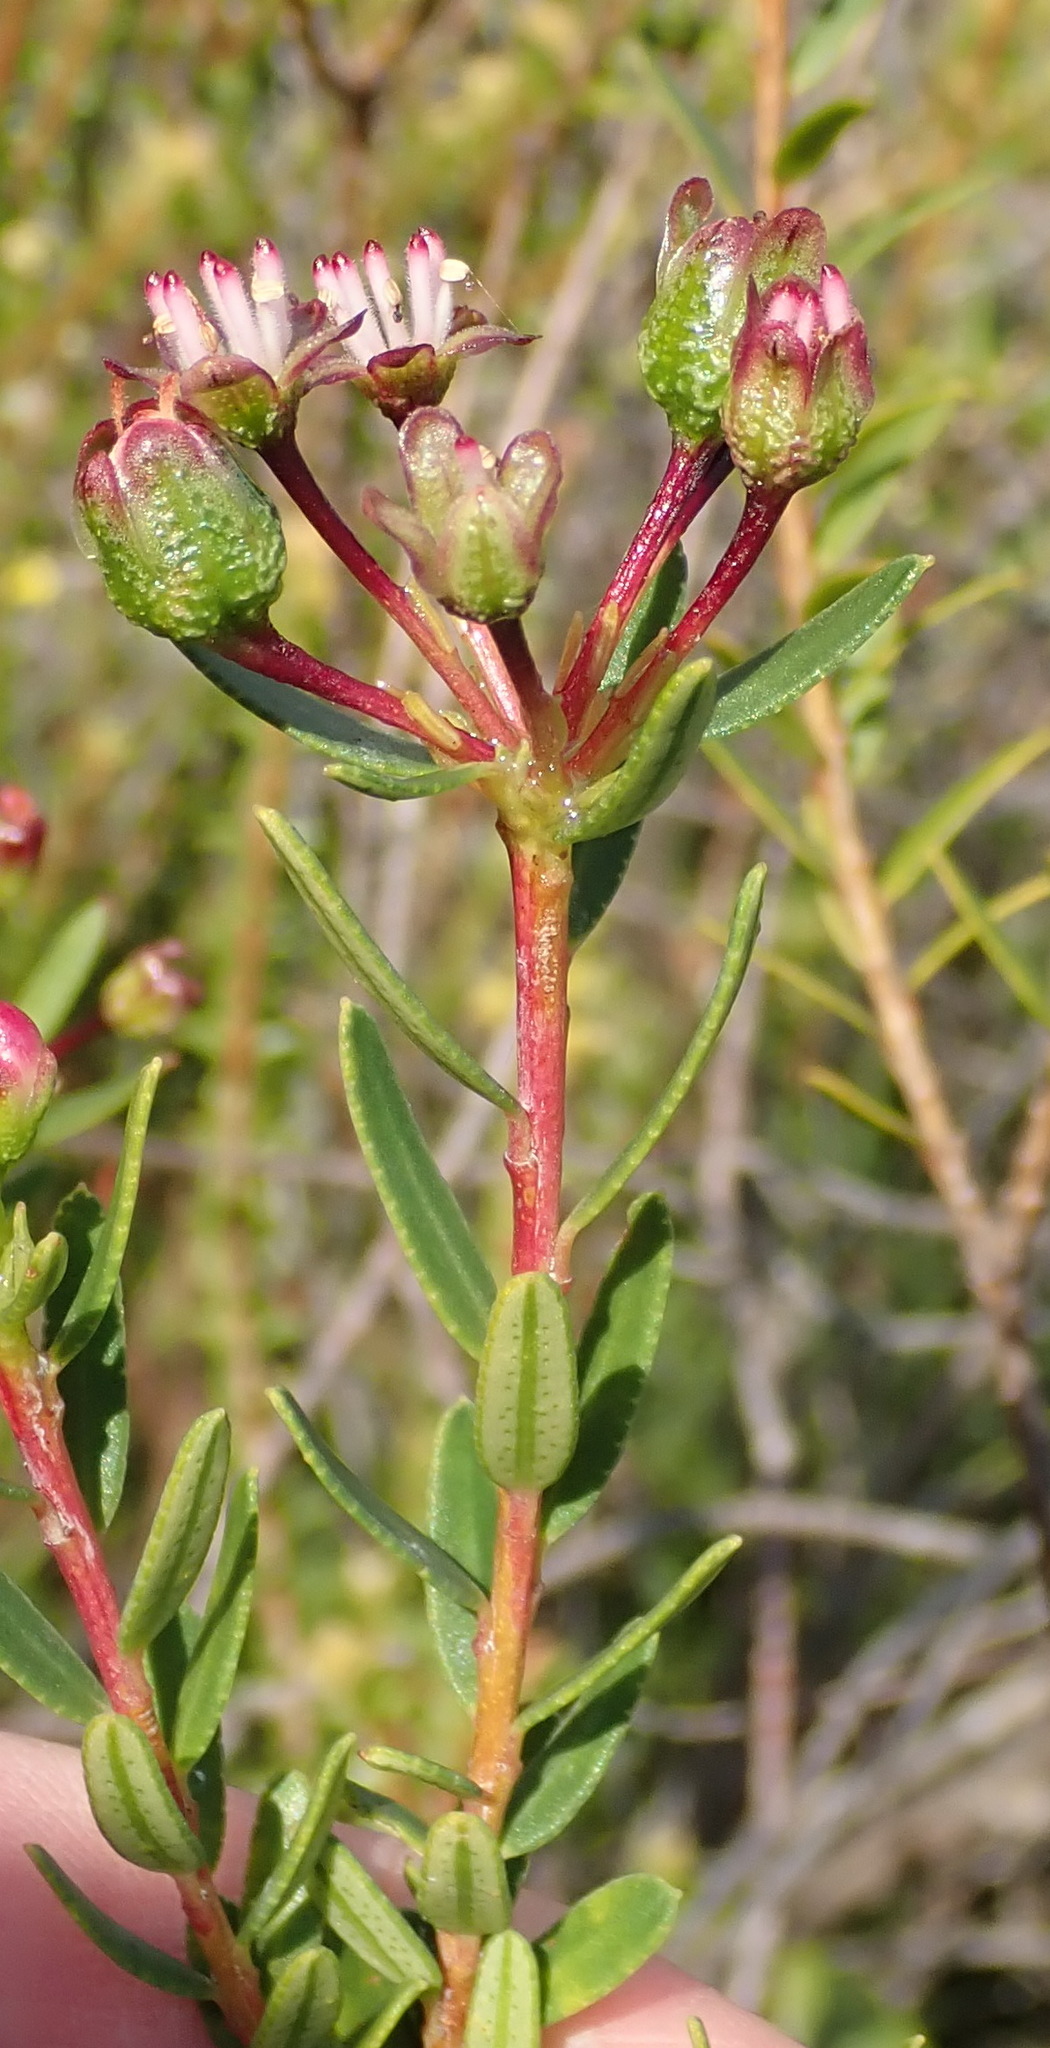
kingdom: Plantae
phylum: Tracheophyta
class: Magnoliopsida
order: Sapindales
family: Rutaceae
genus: Adenandra
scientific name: Adenandra fragrans
